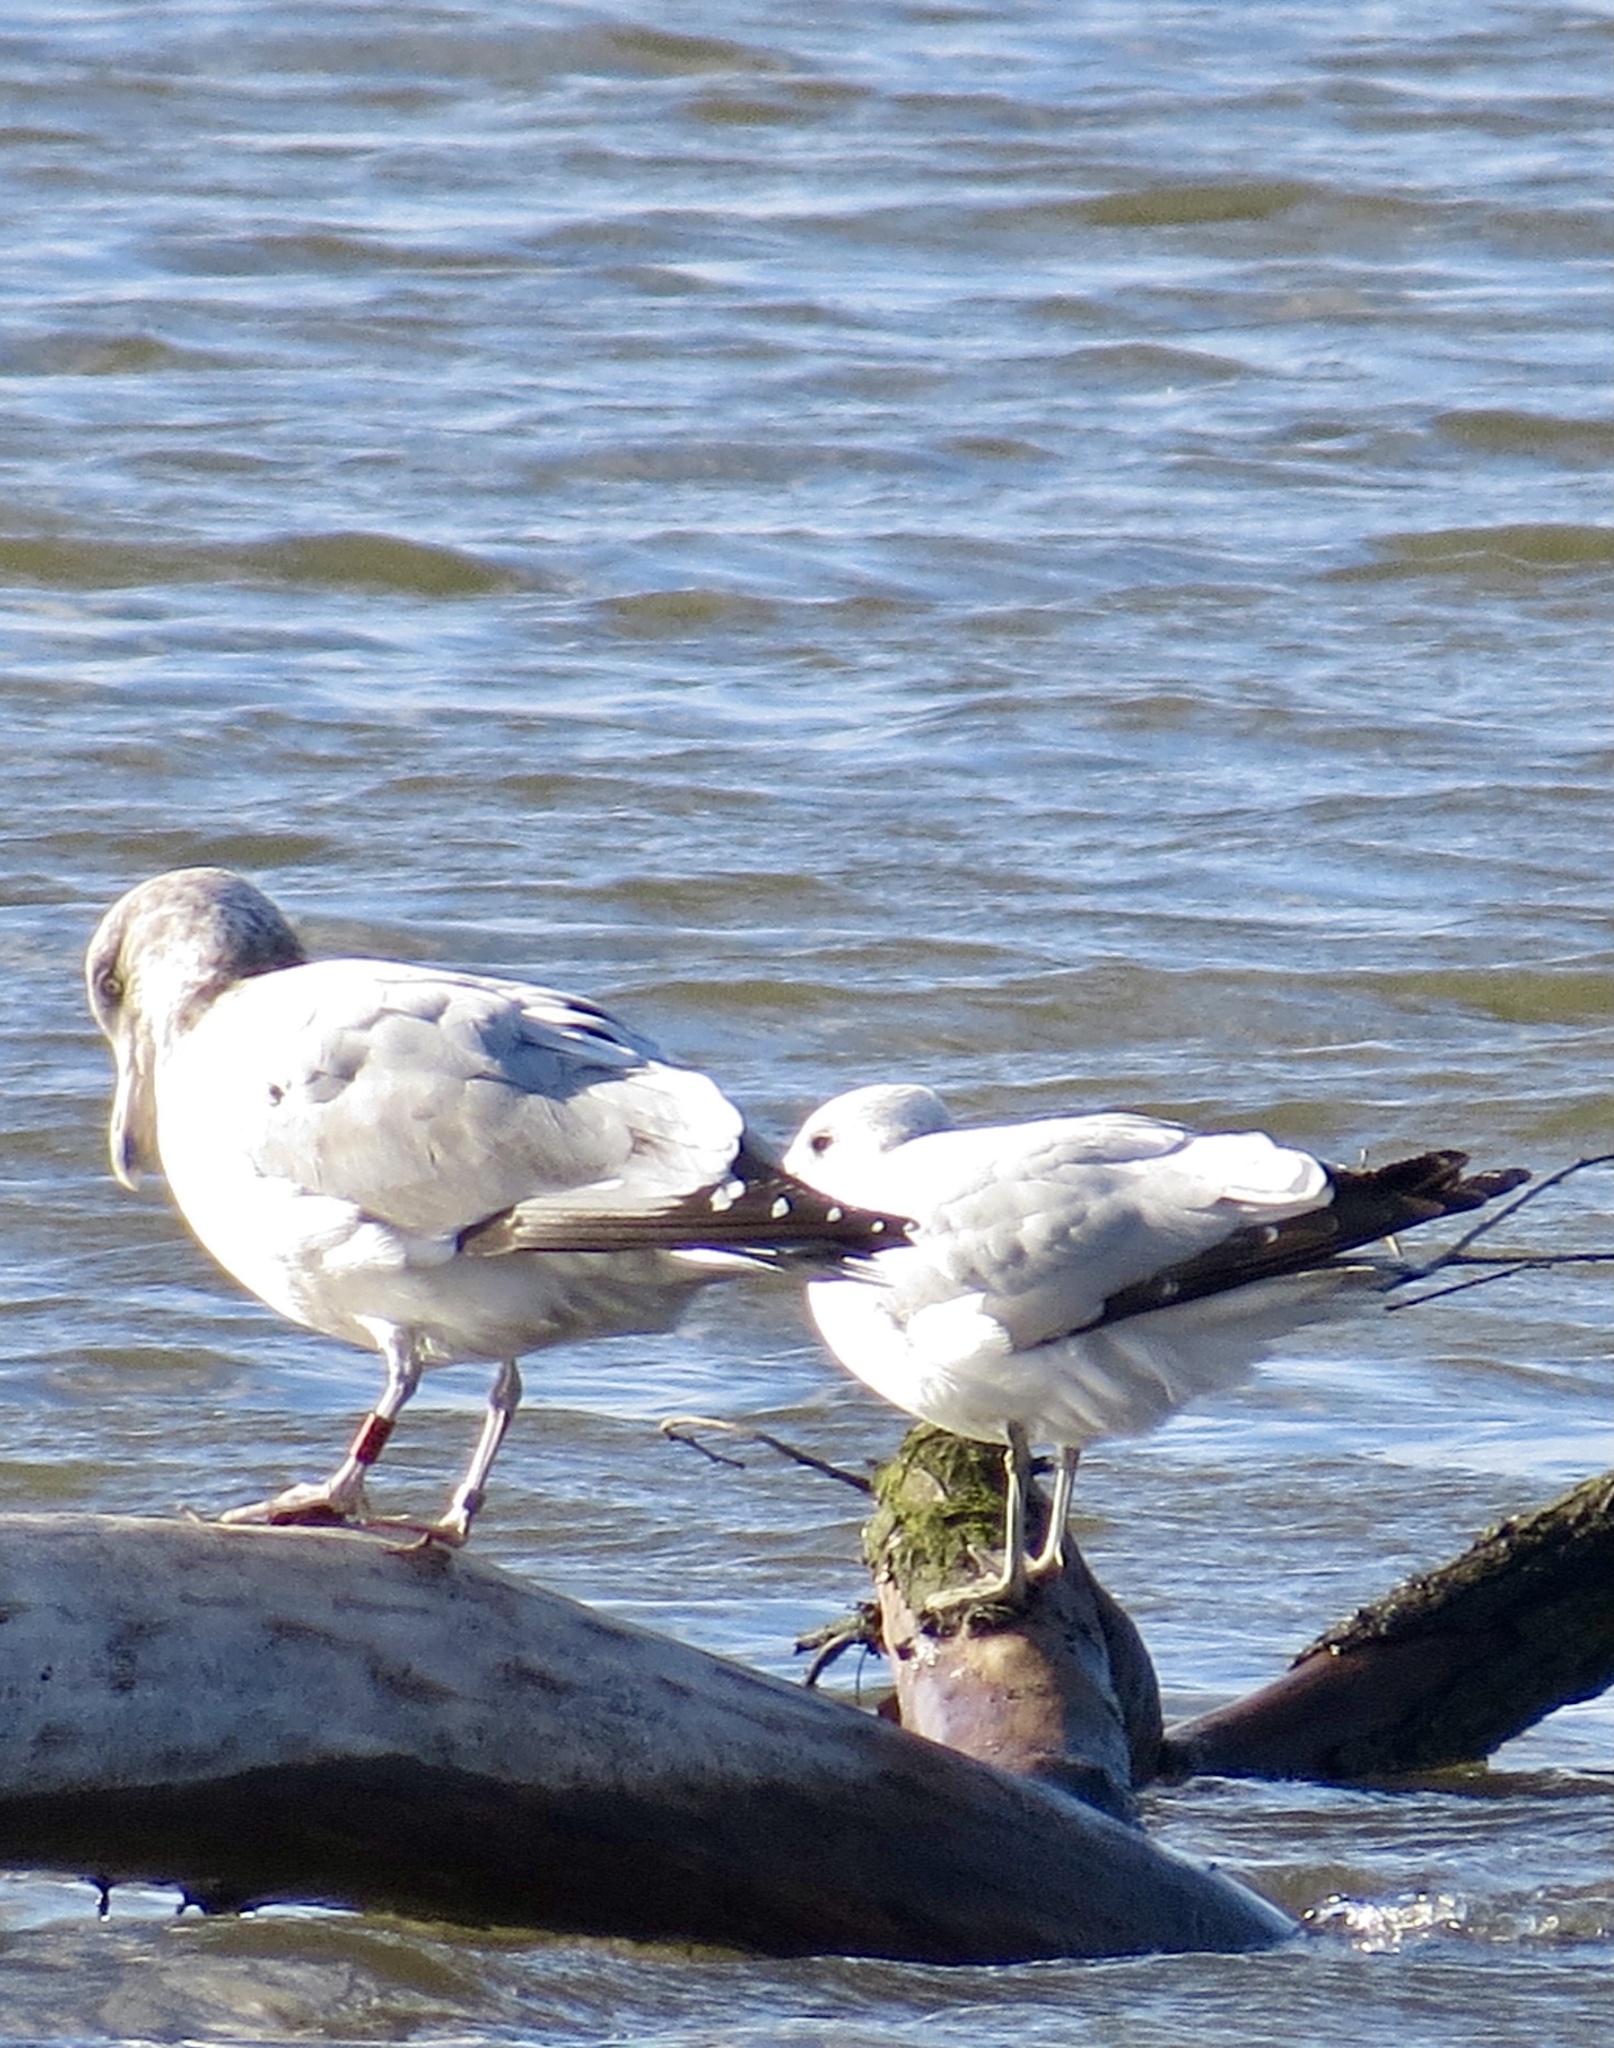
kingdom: Animalia
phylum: Chordata
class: Aves
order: Charadriiformes
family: Laridae
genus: Larus
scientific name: Larus argentatus
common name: Herring gull
